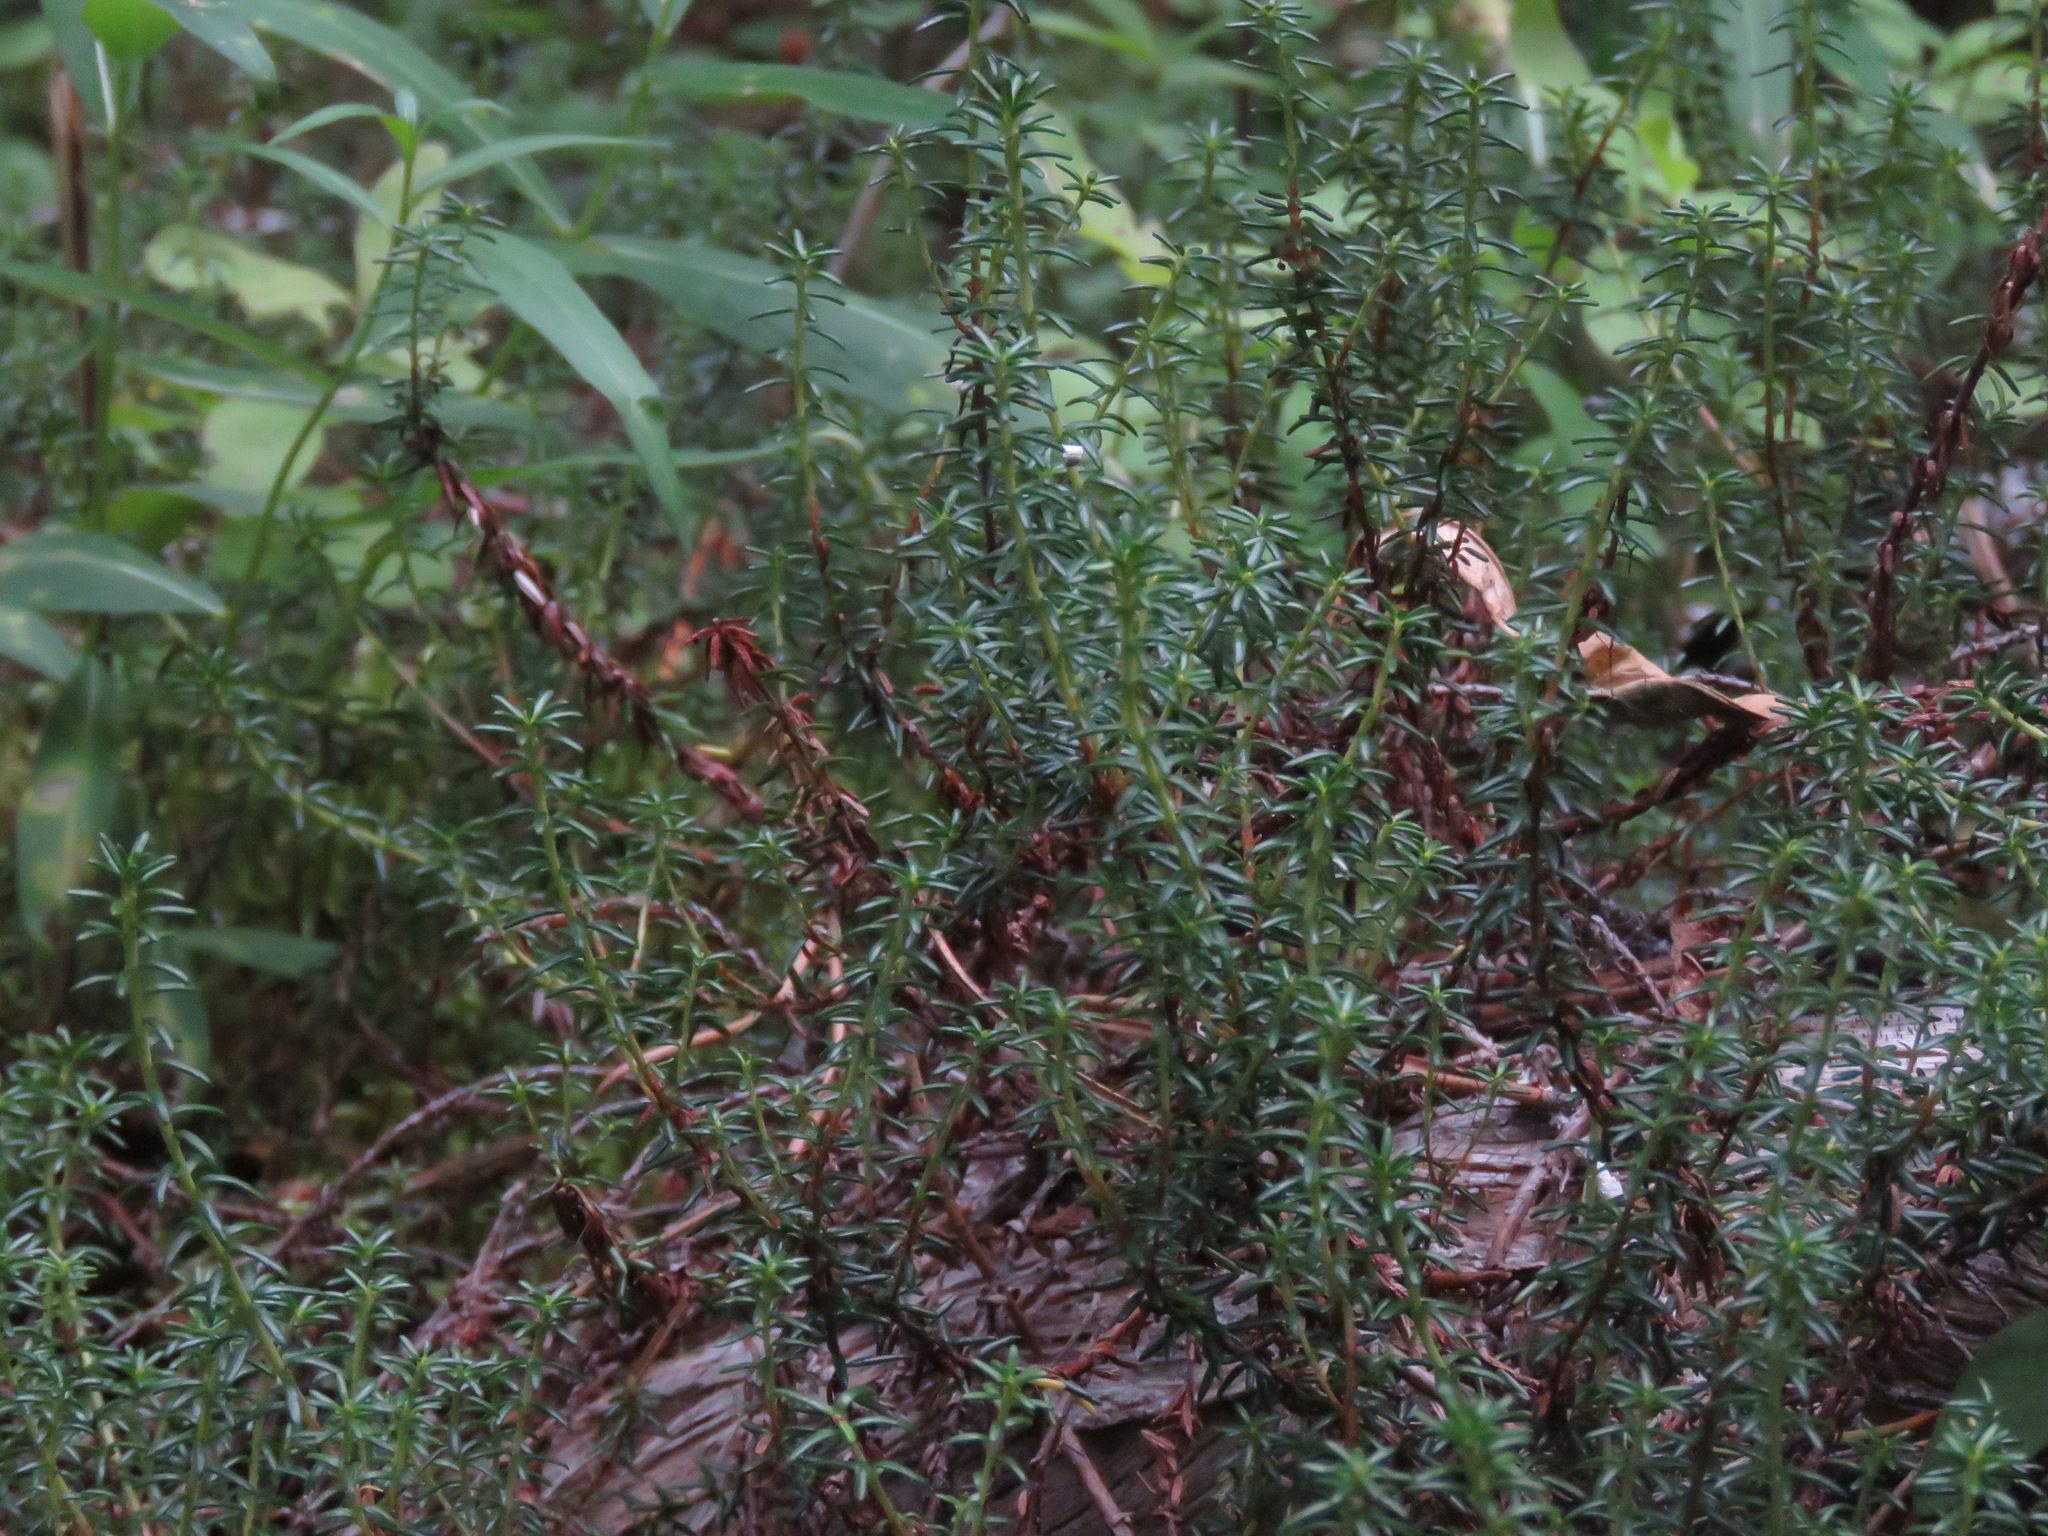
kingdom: Plantae
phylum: Tracheophyta
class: Magnoliopsida
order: Ericales
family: Ericaceae
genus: Empetrum
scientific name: Empetrum nigrum
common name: Black crowberry
